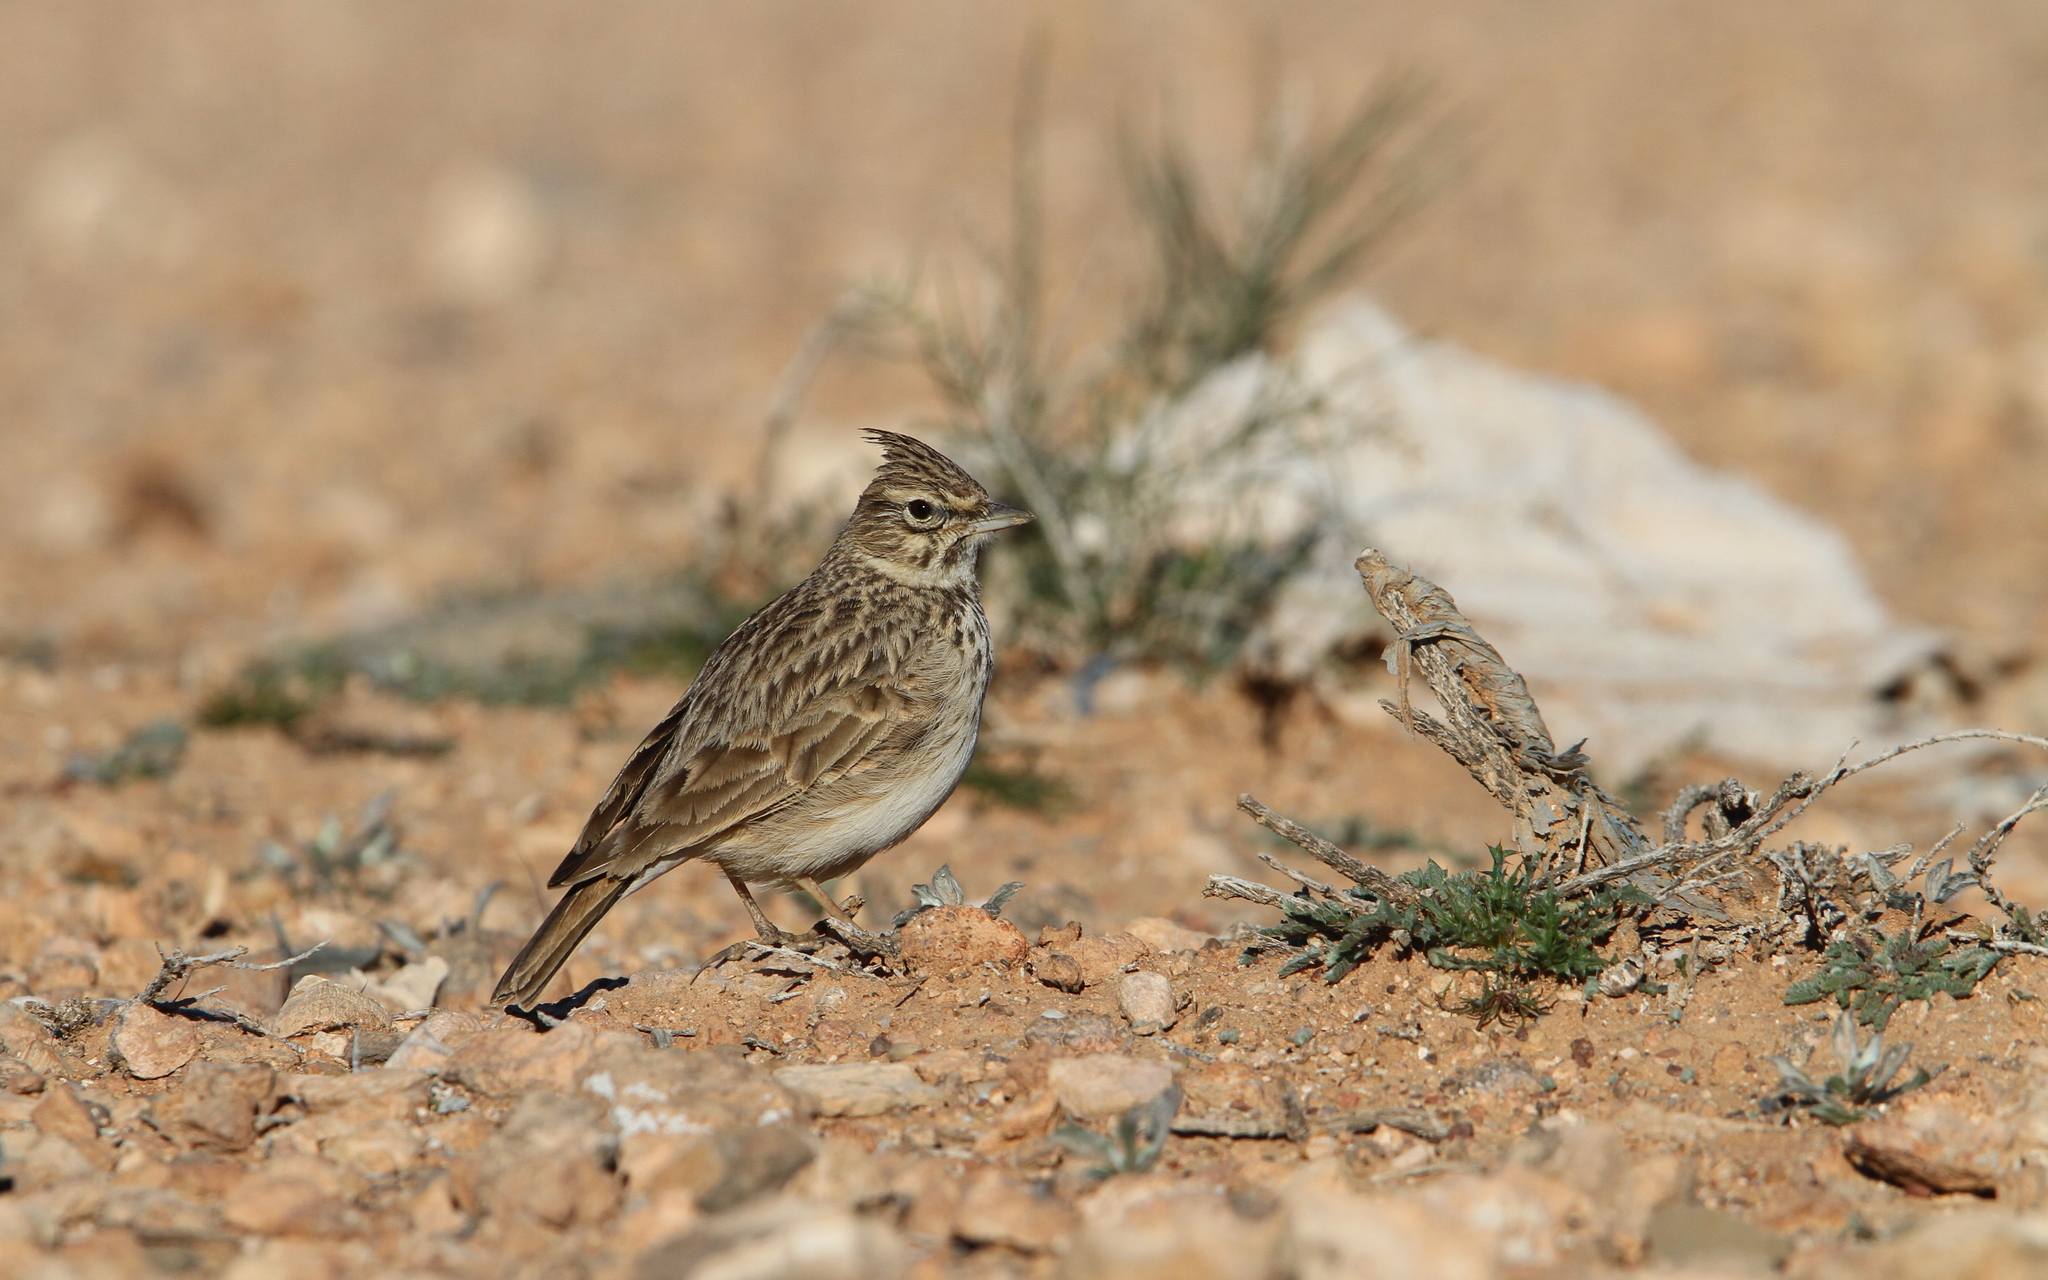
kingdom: Animalia
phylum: Chordata
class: Aves
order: Passeriformes
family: Alaudidae
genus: Galerida
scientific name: Galerida theklae
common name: Thekla lark
